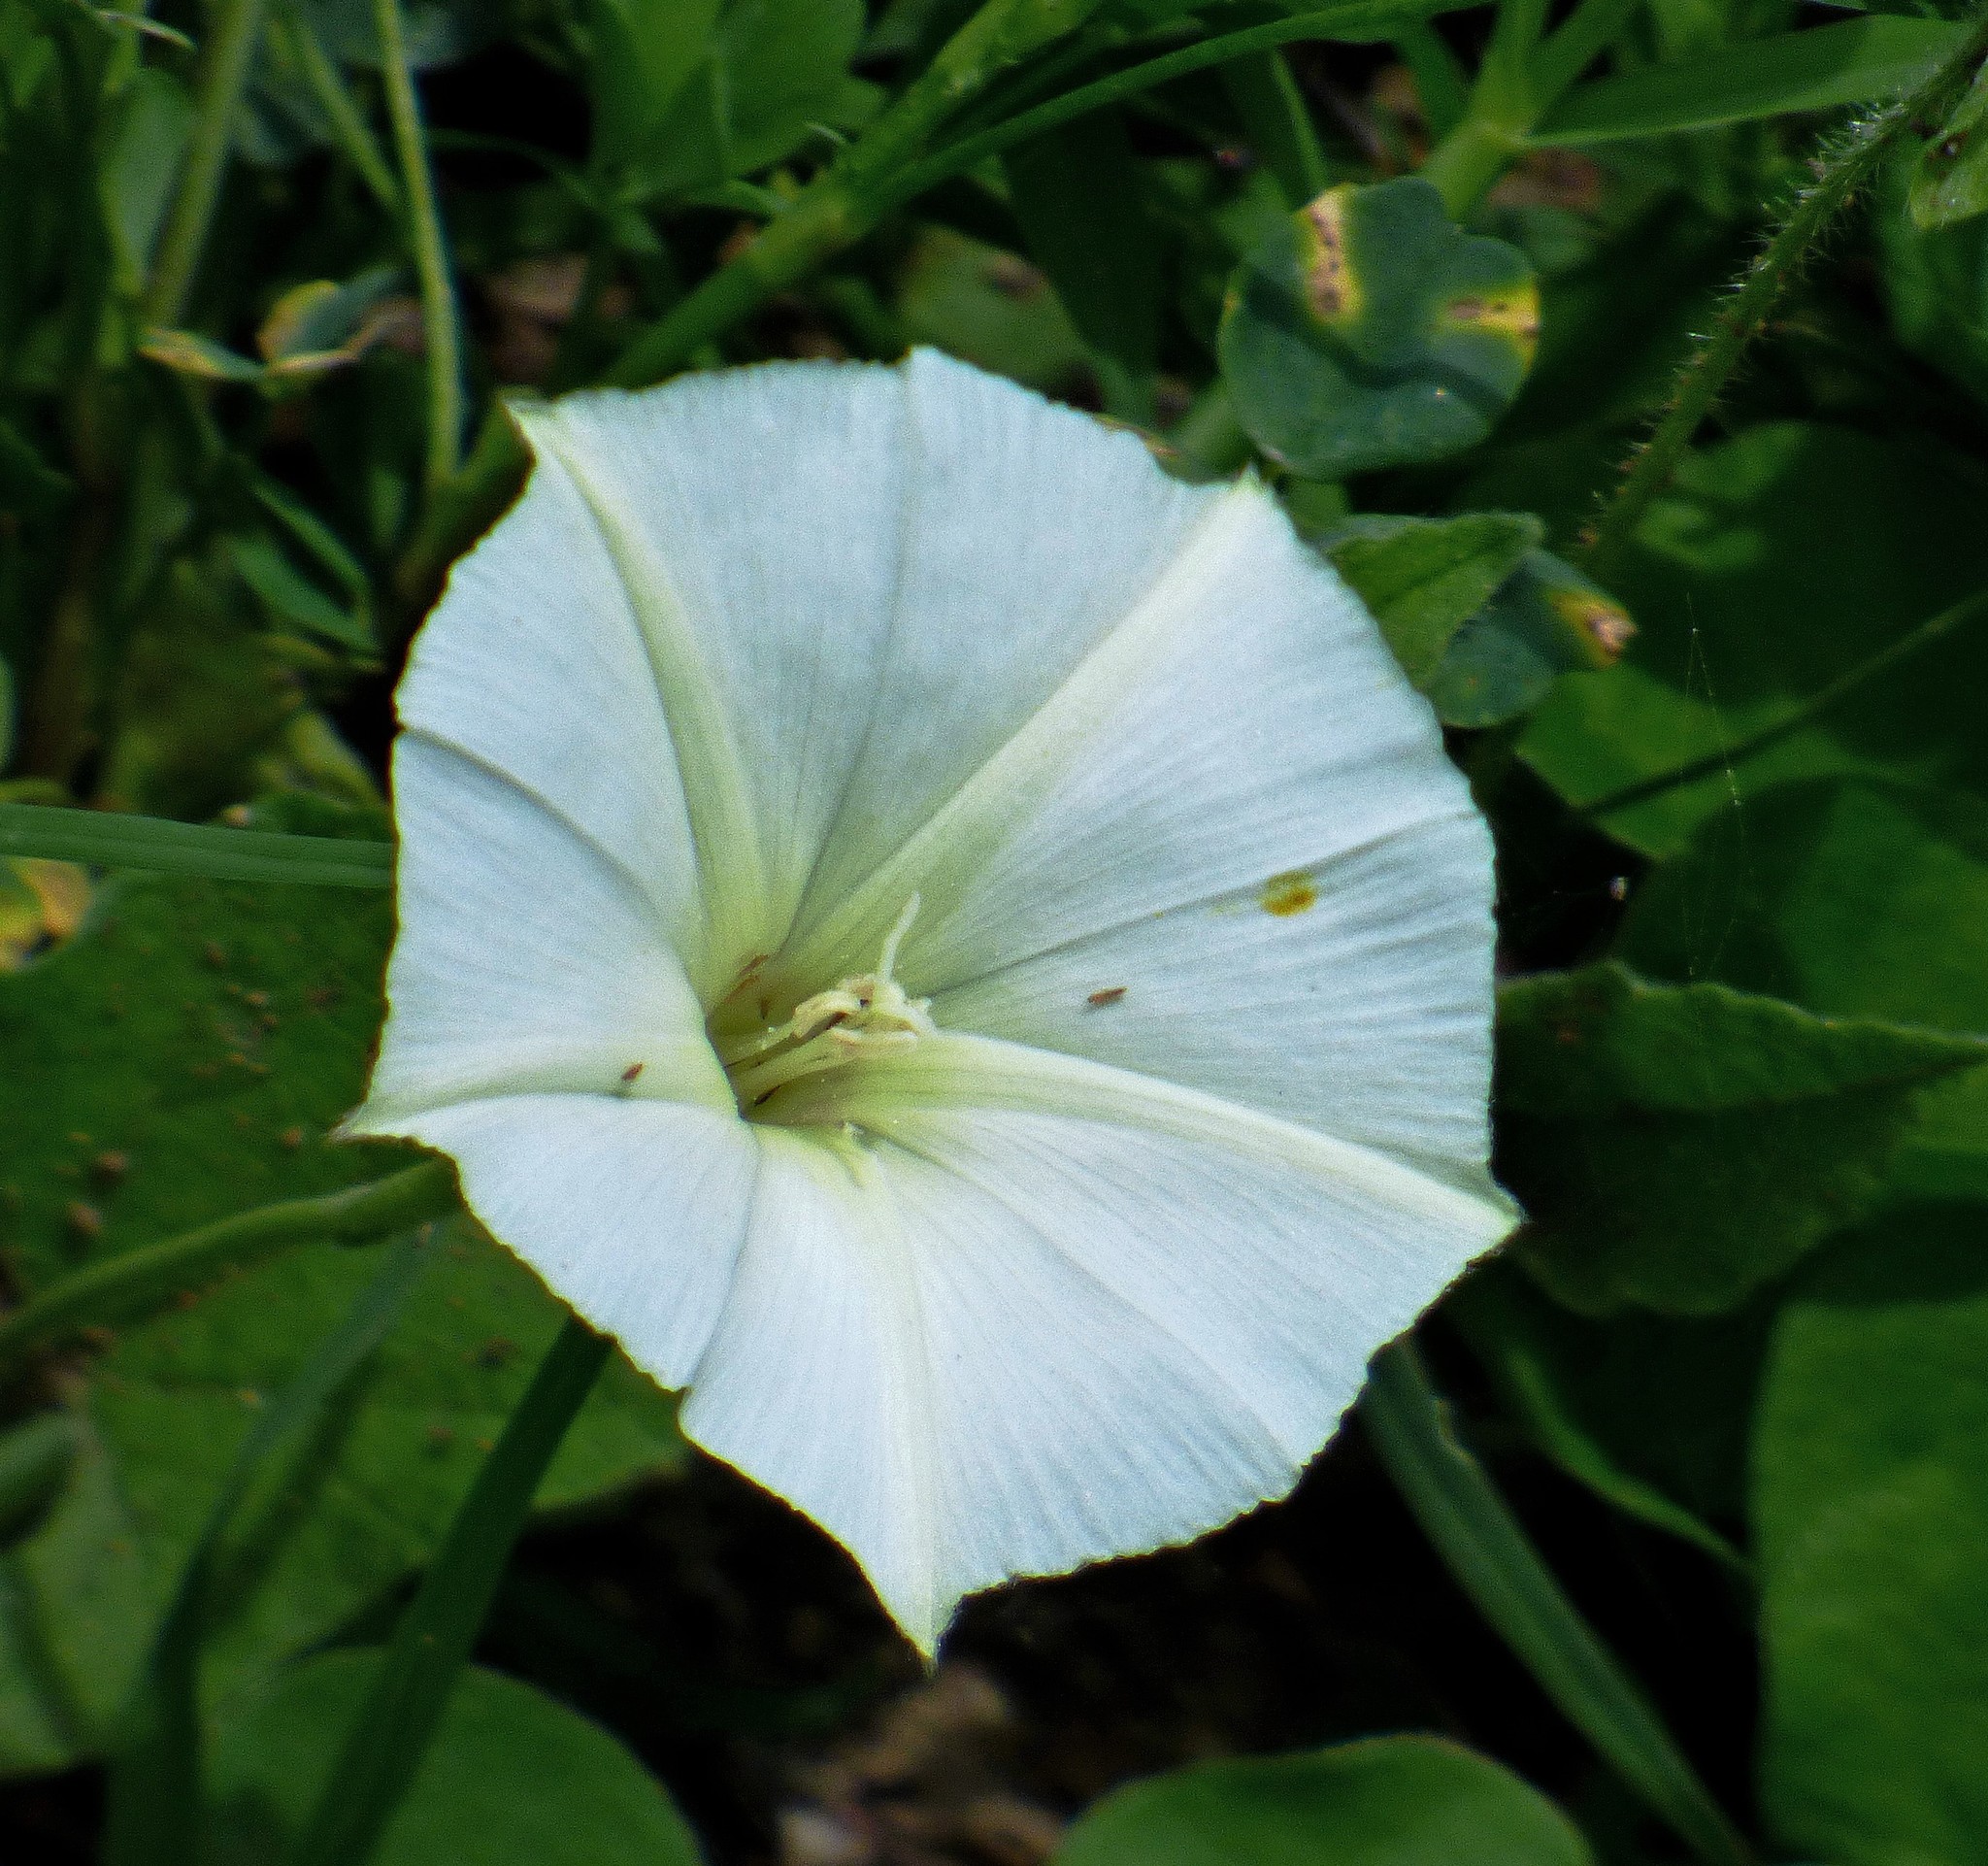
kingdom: Plantae
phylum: Tracheophyta
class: Magnoliopsida
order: Solanales
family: Convolvulaceae
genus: Convolvulus
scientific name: Convolvulus crenatifolius
